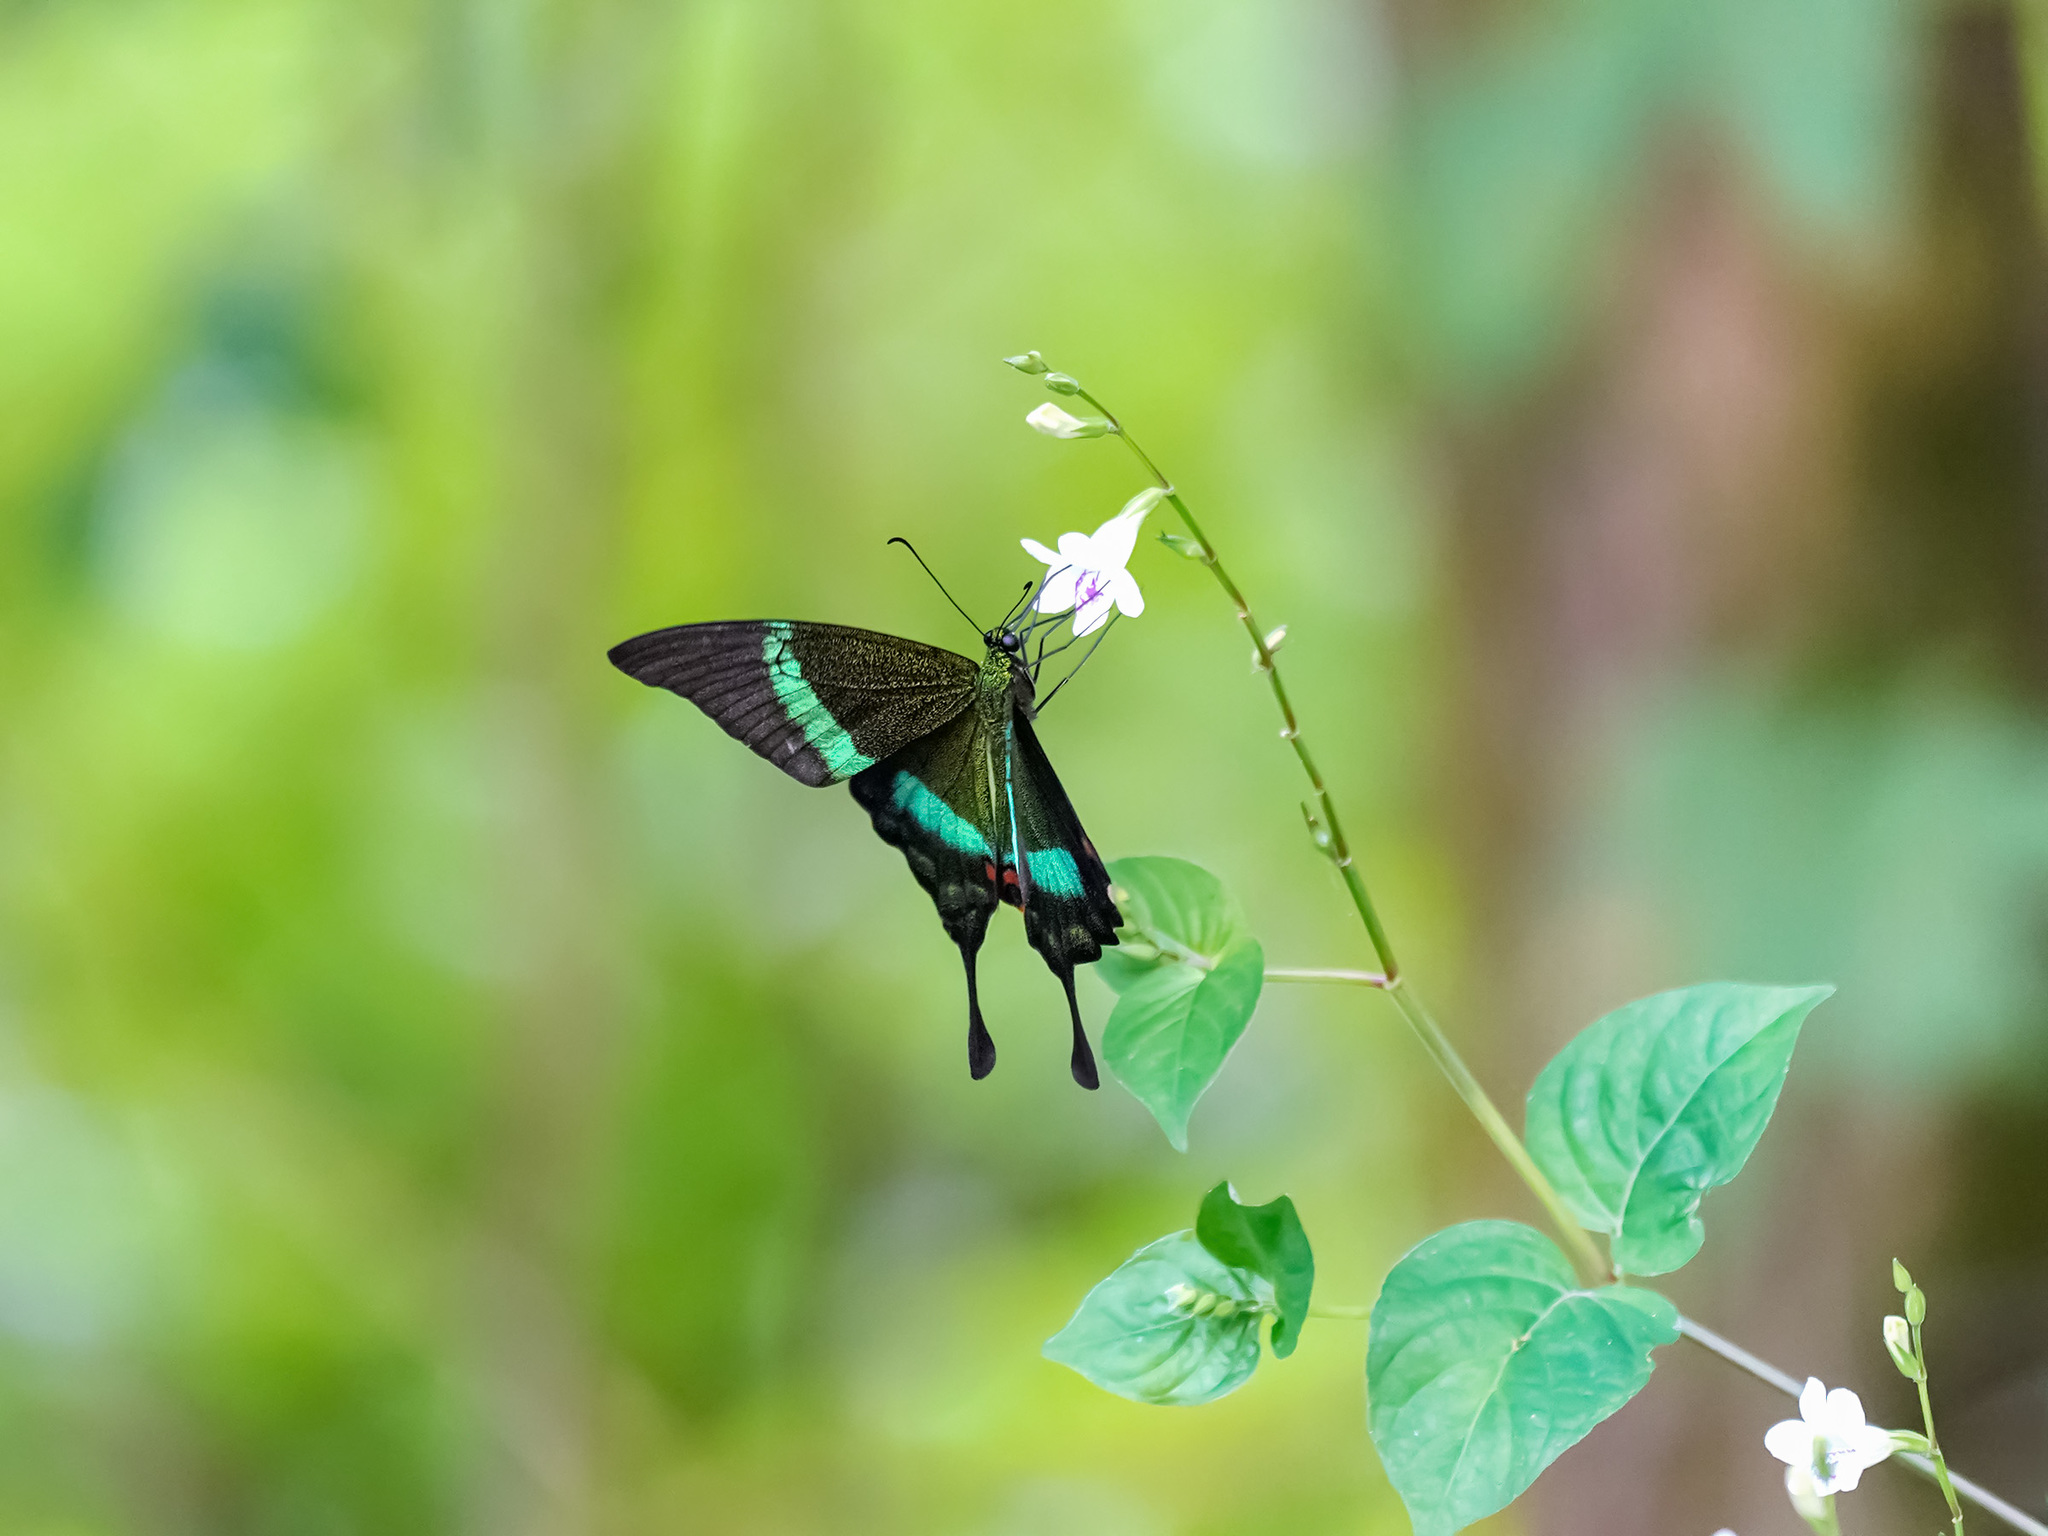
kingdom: Animalia
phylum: Arthropoda
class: Insecta
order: Lepidoptera
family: Papilionidae
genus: Papilio
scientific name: Papilio palinurus
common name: Banded peacock
